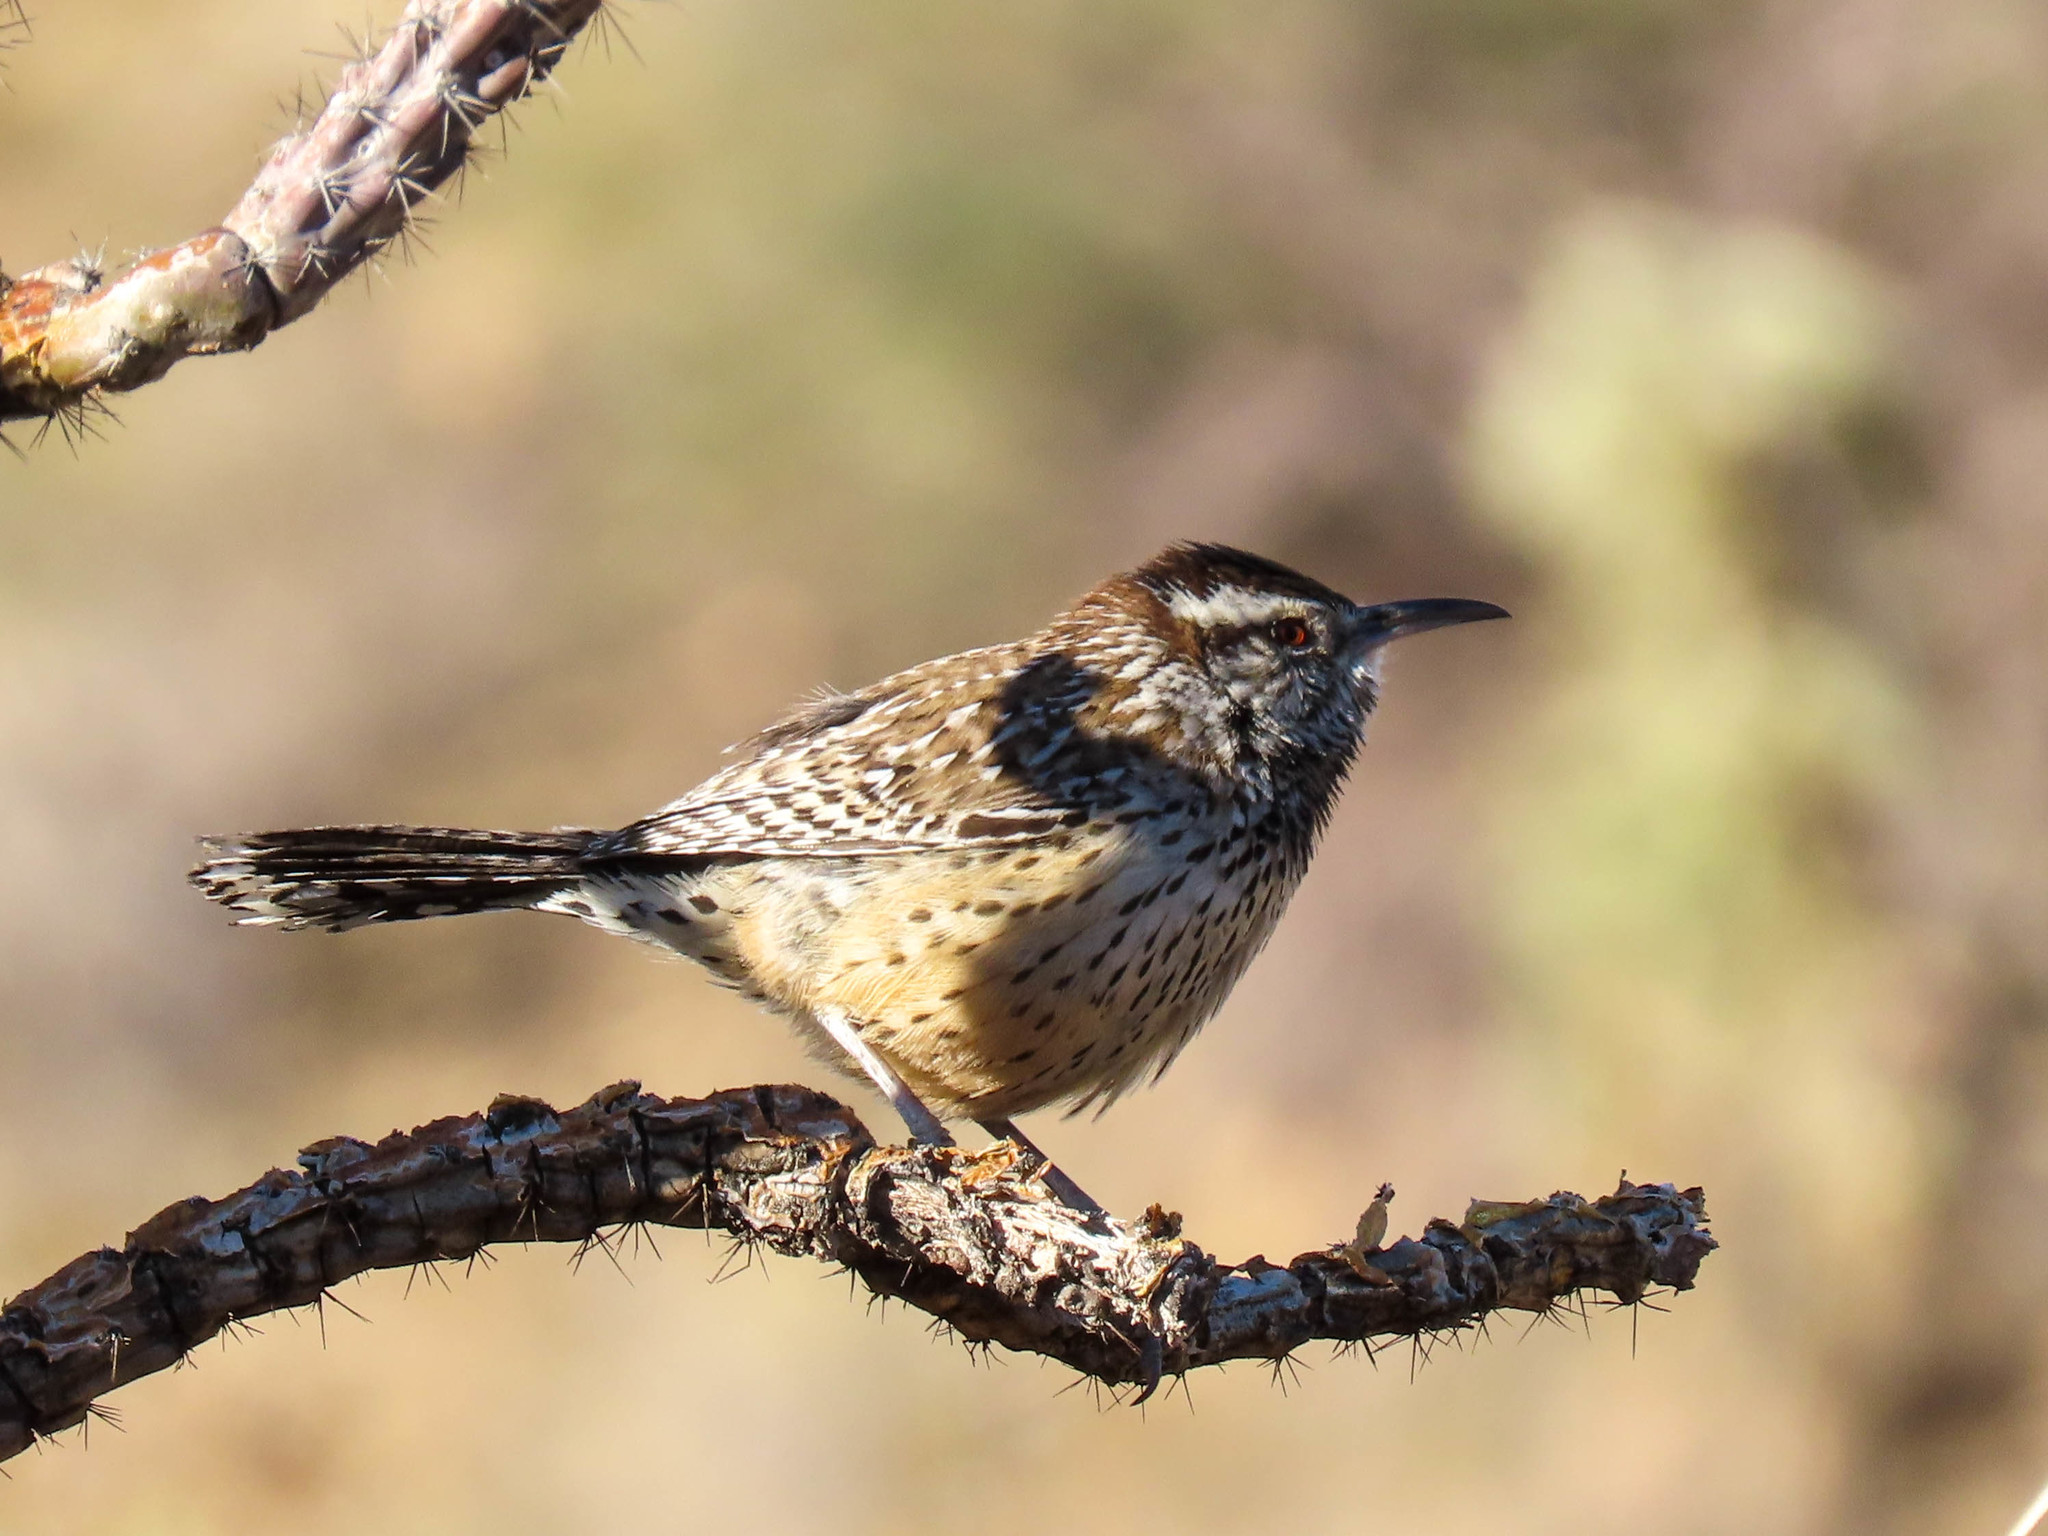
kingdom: Animalia
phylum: Chordata
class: Aves
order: Passeriformes
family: Troglodytidae
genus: Campylorhynchus
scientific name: Campylorhynchus brunneicapillus
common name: Cactus wren
